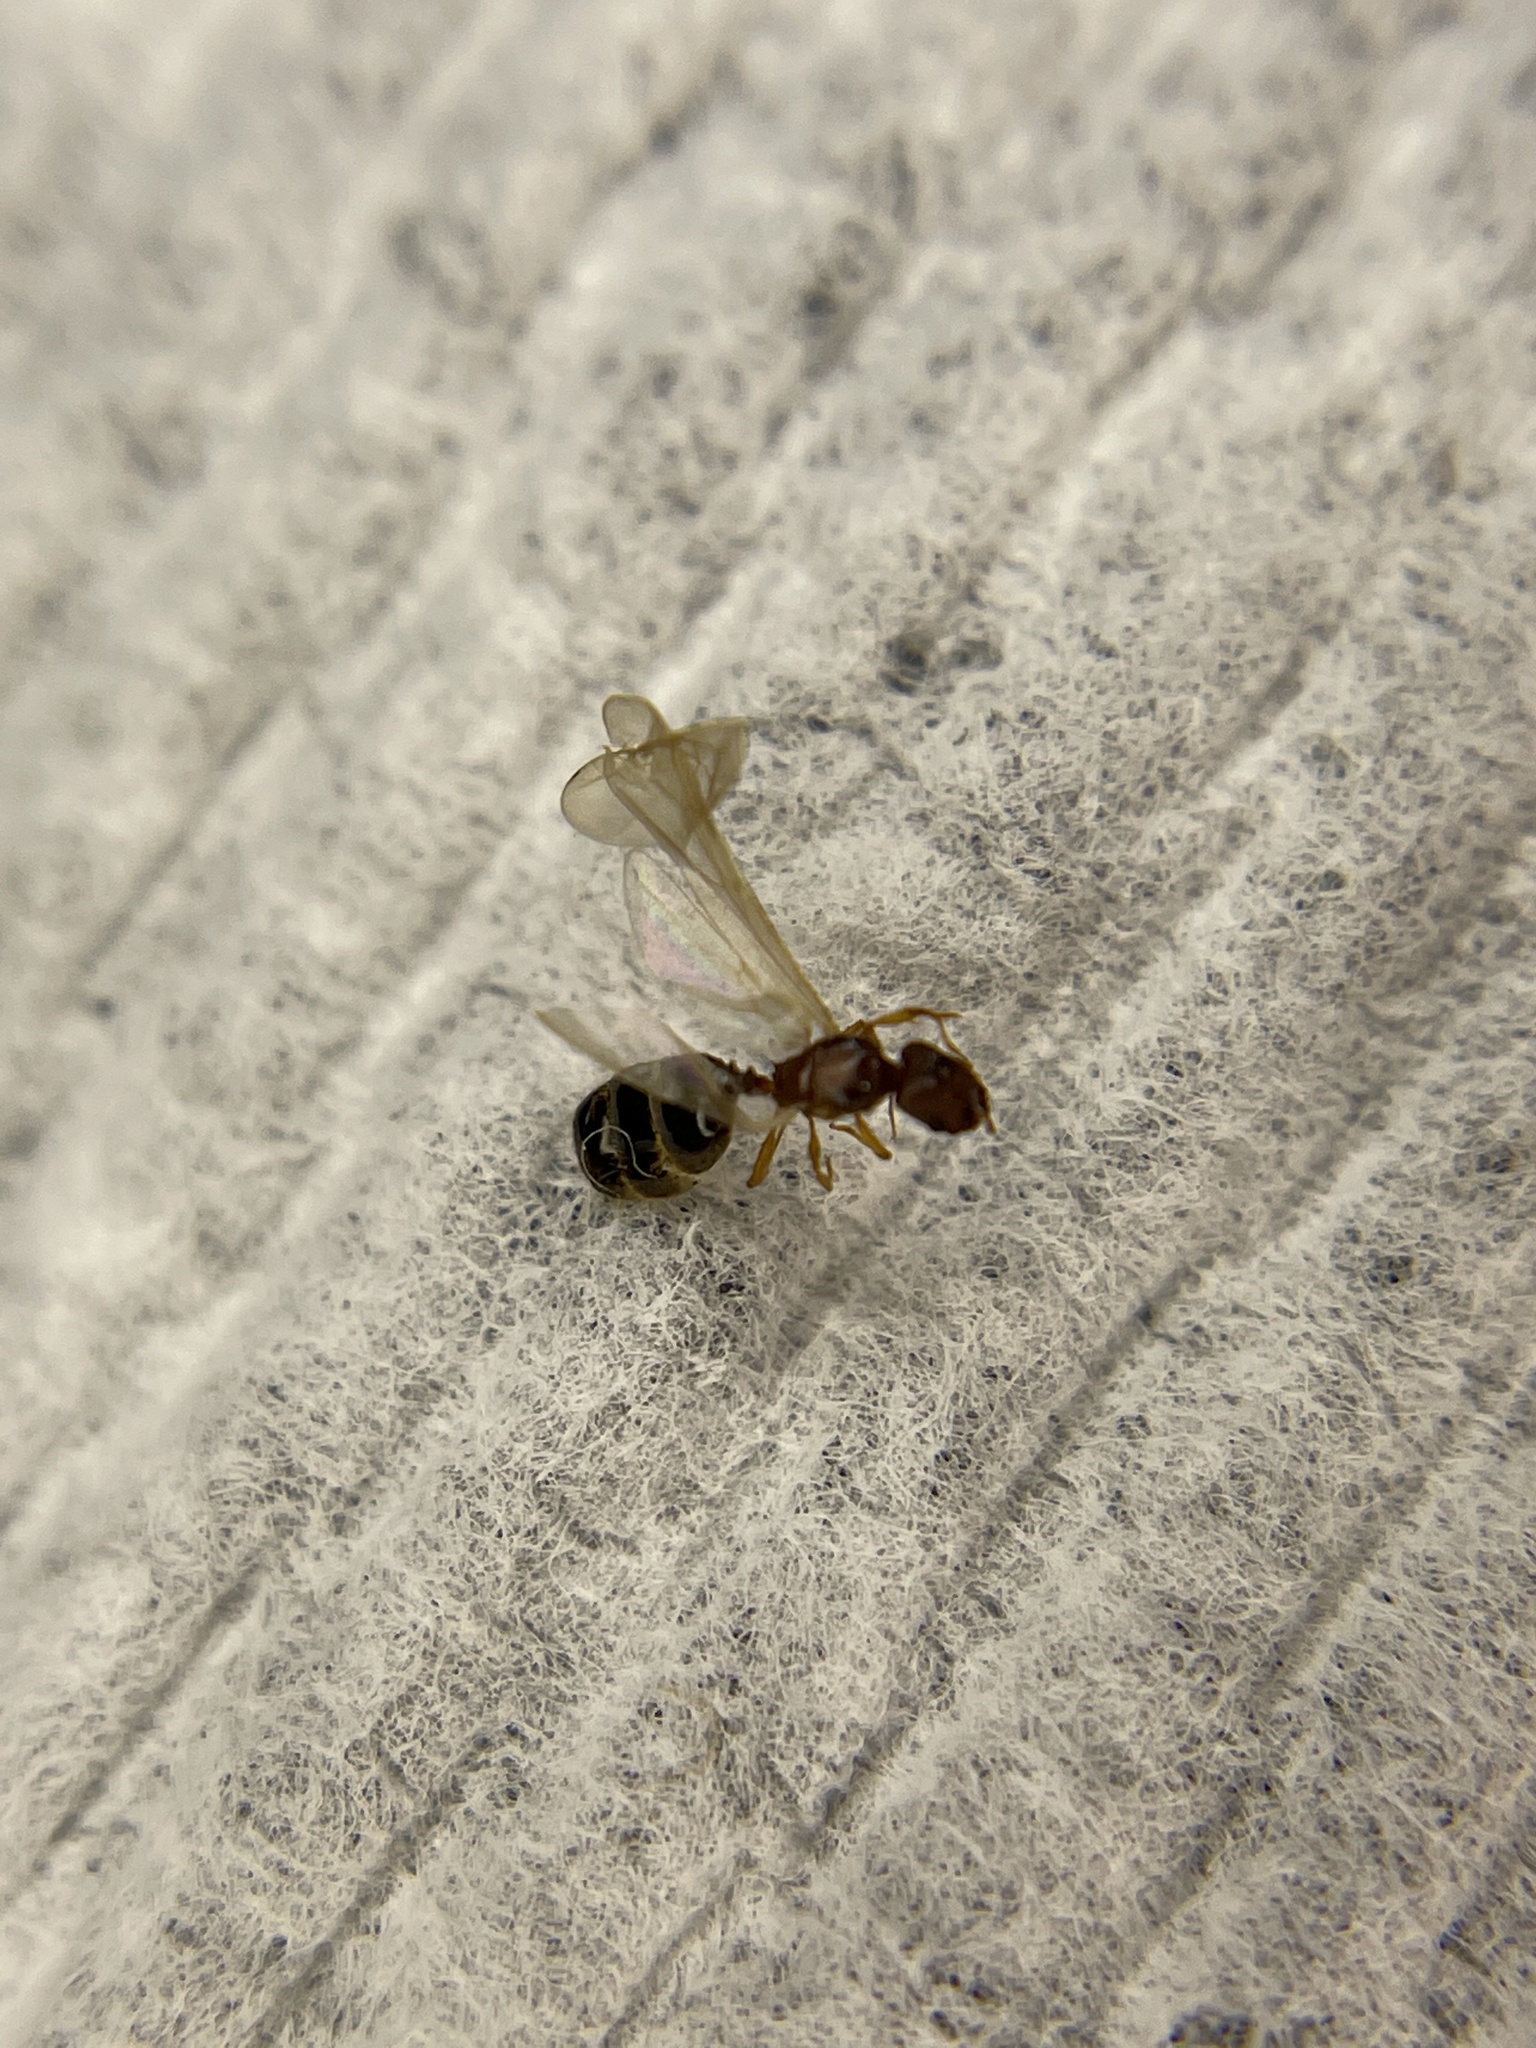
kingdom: Animalia
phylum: Arthropoda
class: Insecta
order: Hymenoptera
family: Formicidae
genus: Pheidole
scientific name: Pheidole parva
